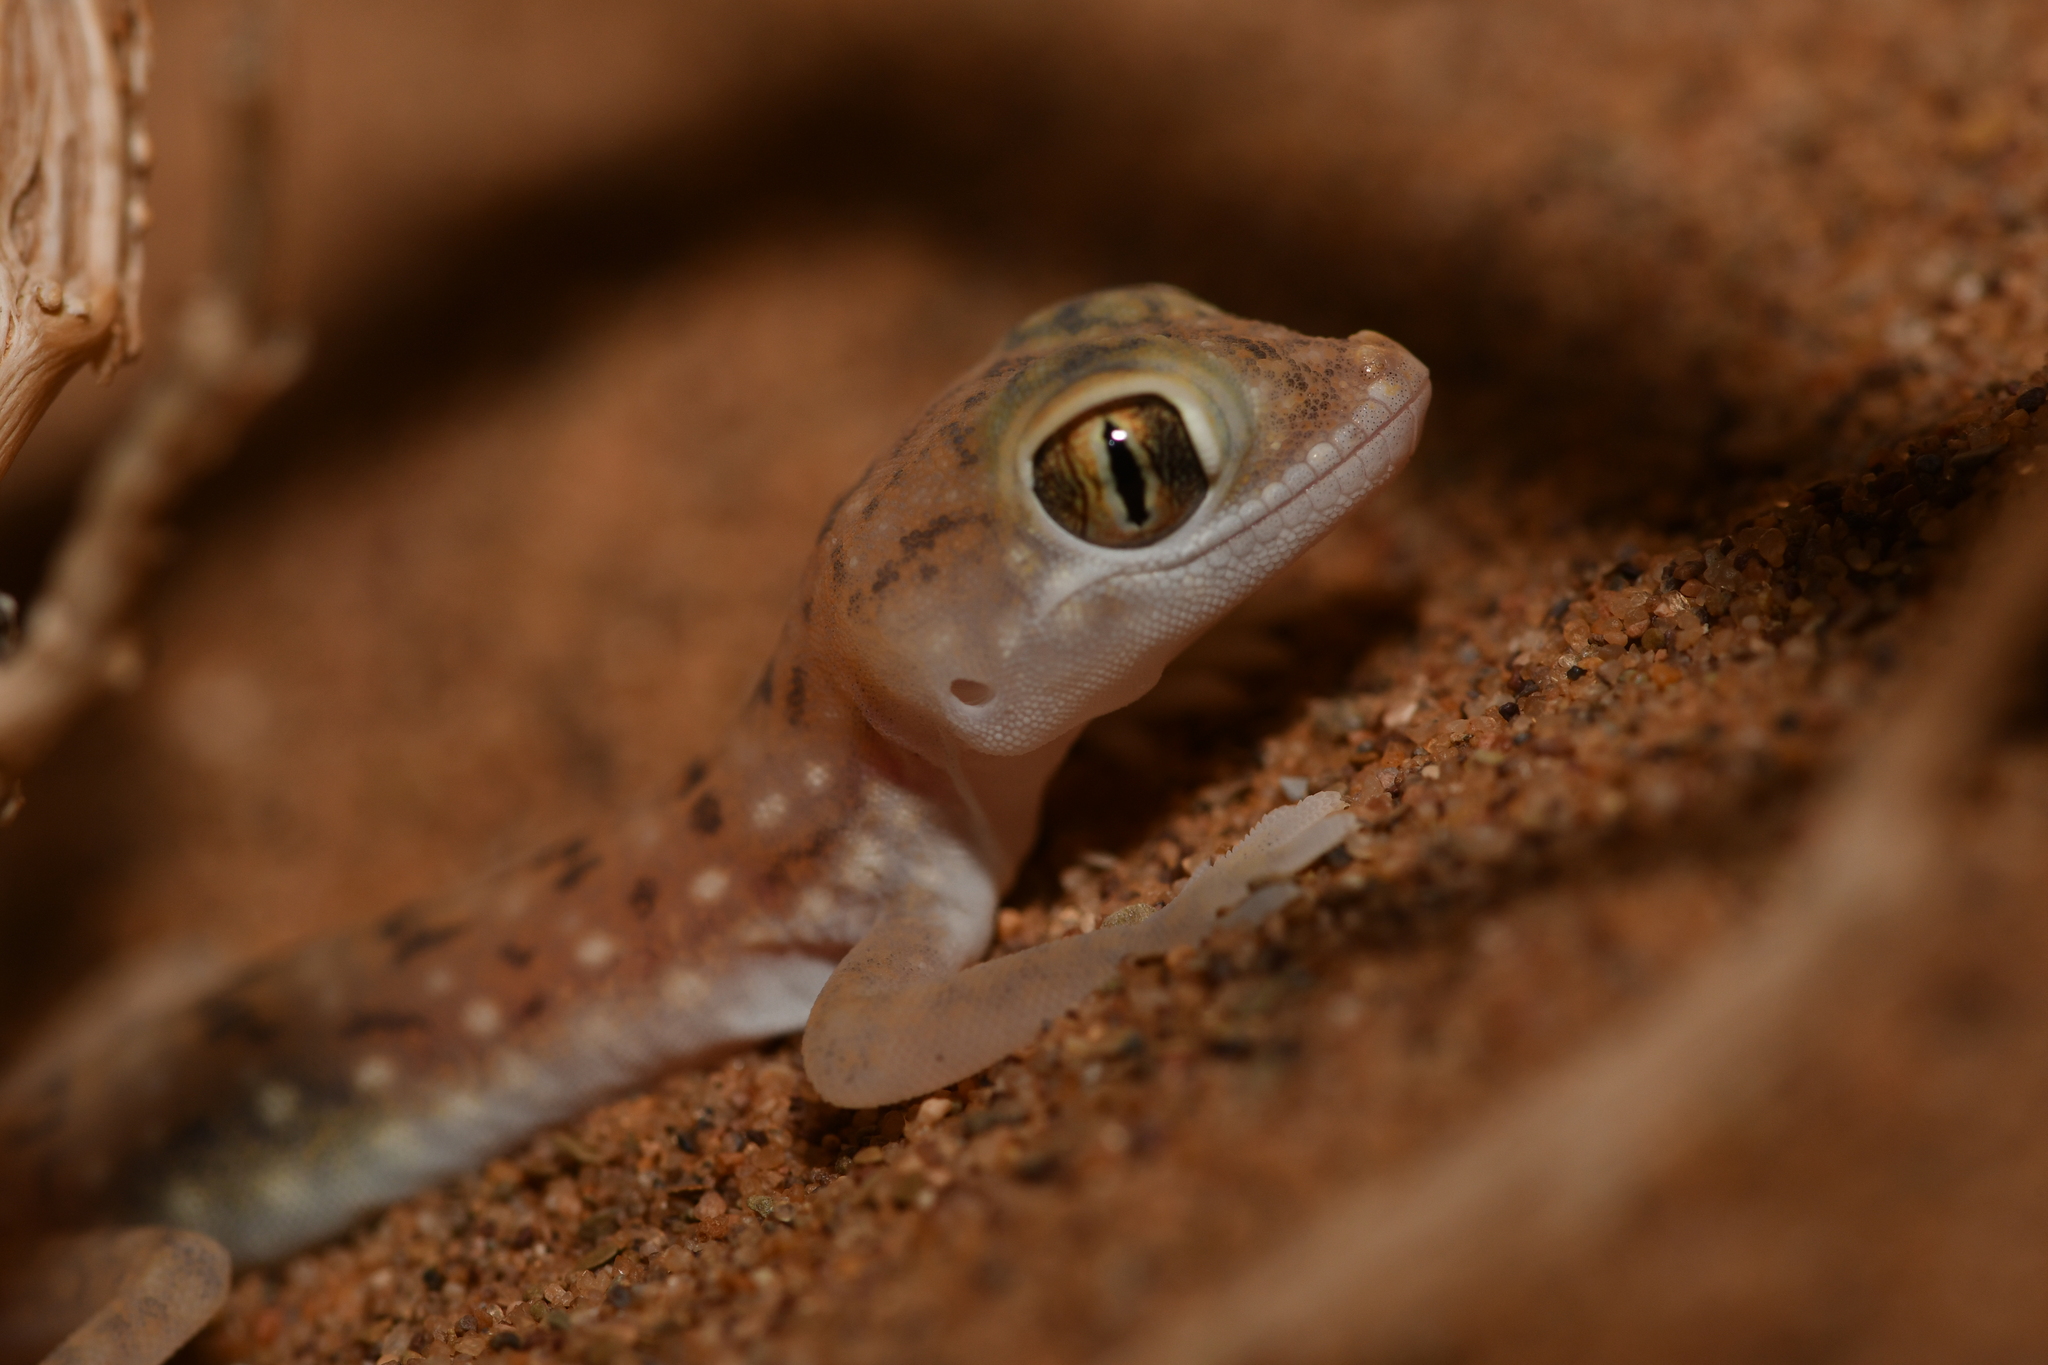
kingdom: Animalia
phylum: Chordata
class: Squamata
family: Gekkonidae
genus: Stenodactylus
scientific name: Stenodactylus petrii
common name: Anderson's short-fingered gecko
